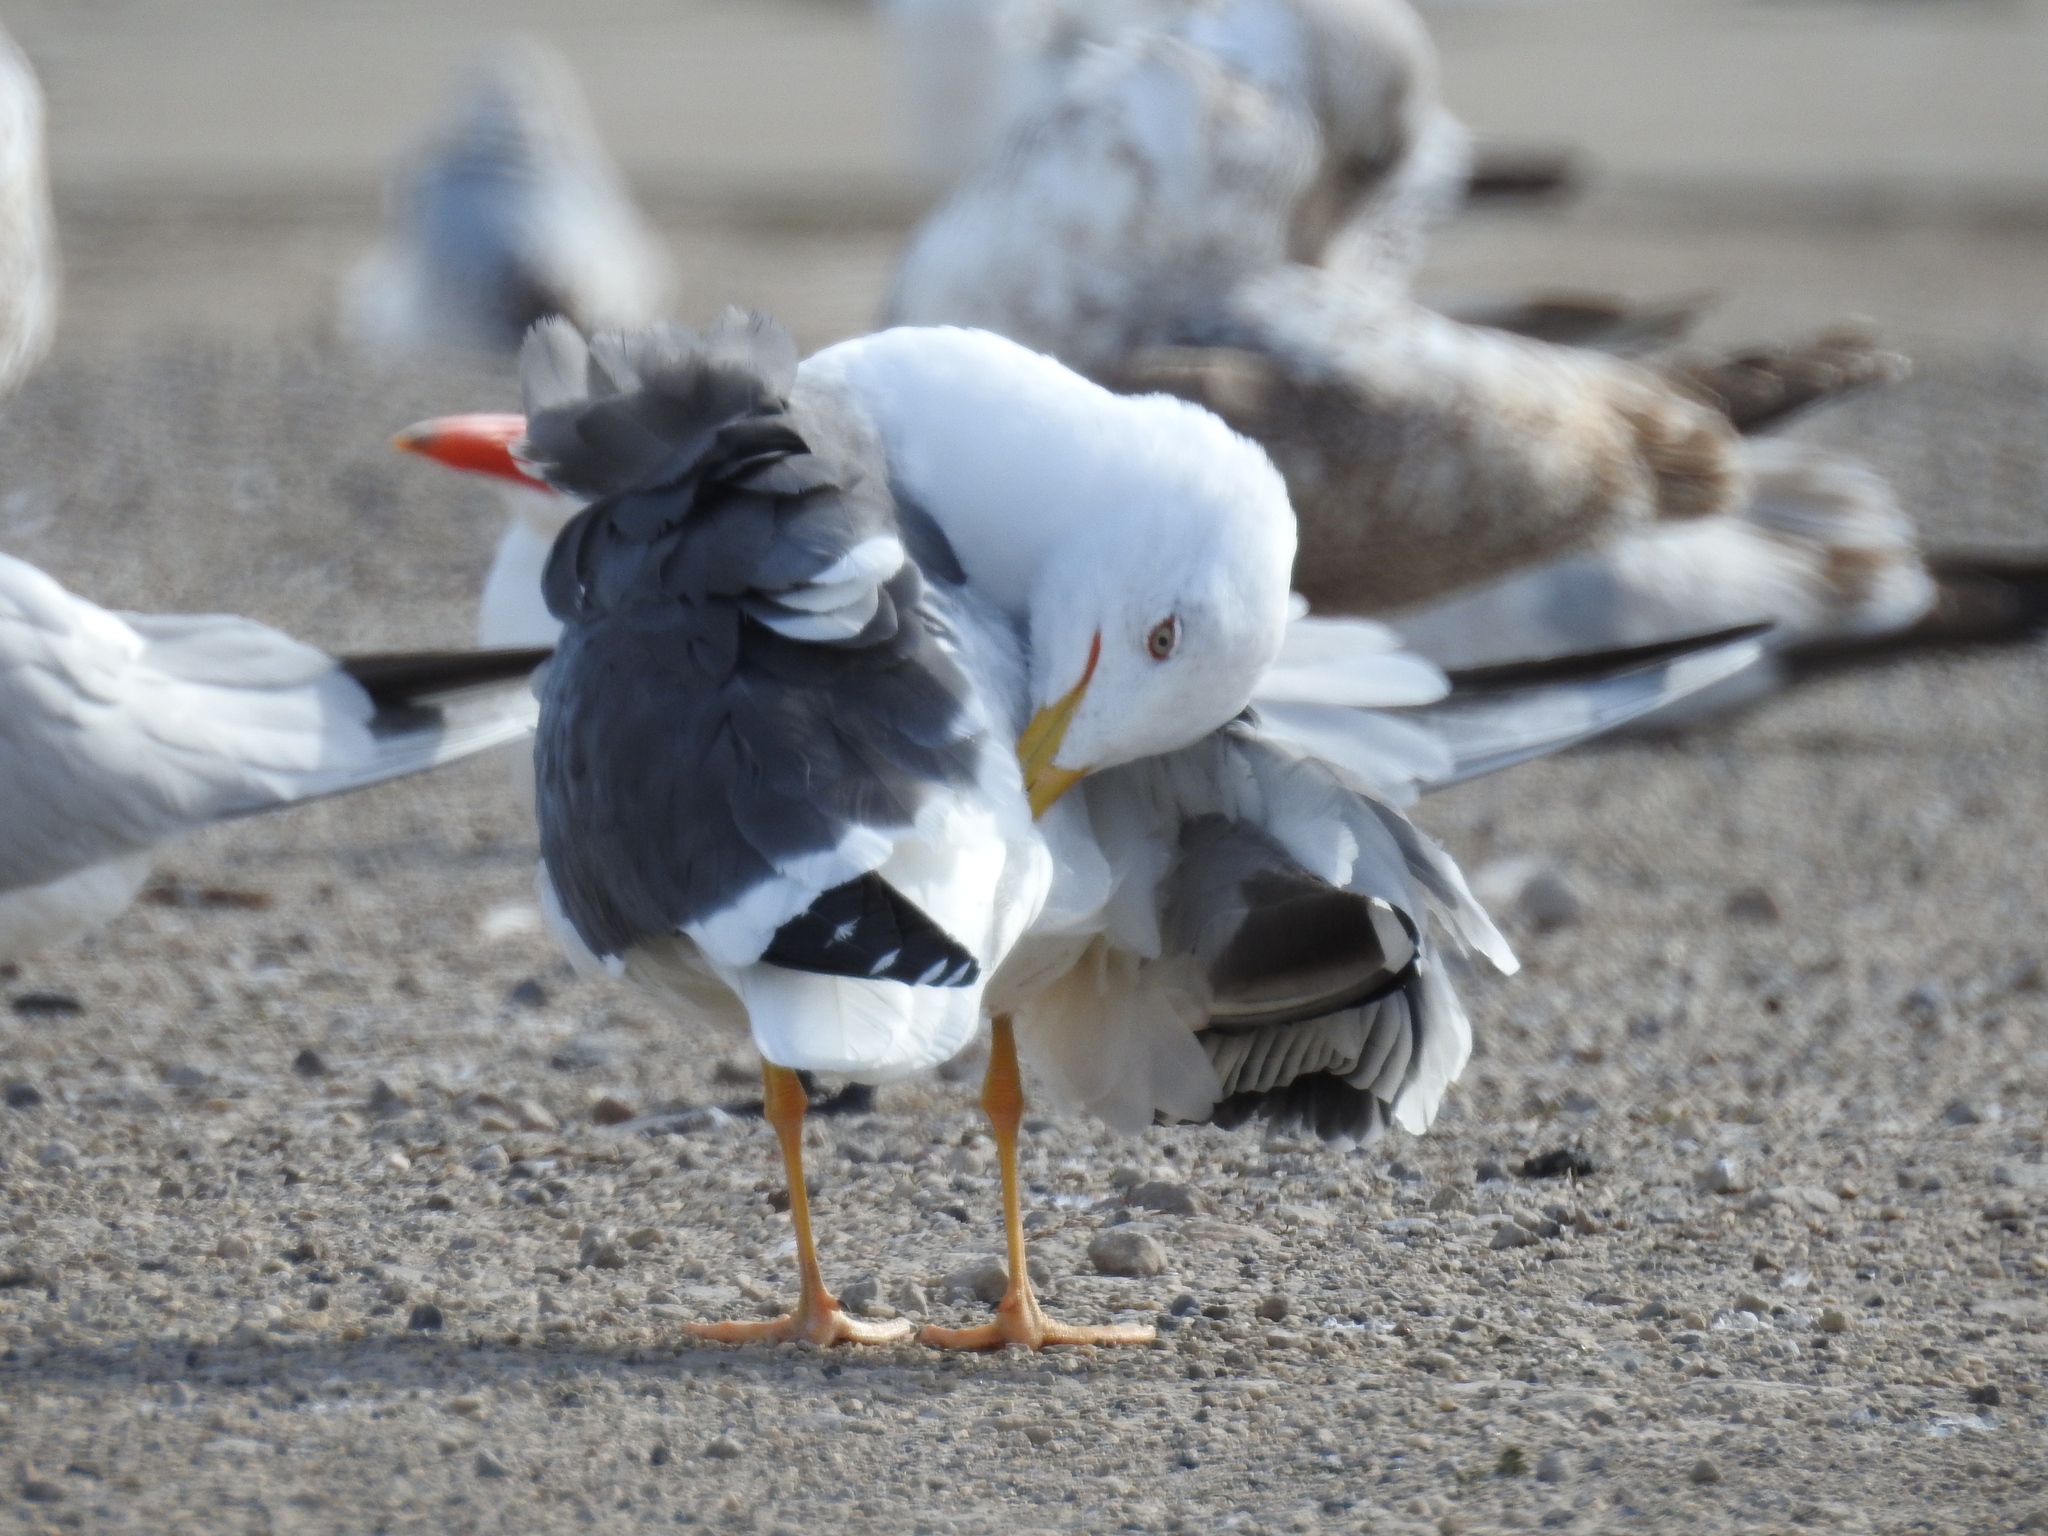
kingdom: Animalia
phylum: Chordata
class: Aves
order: Charadriiformes
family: Laridae
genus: Larus
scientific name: Larus fuscus
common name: Lesser black-backed gull
